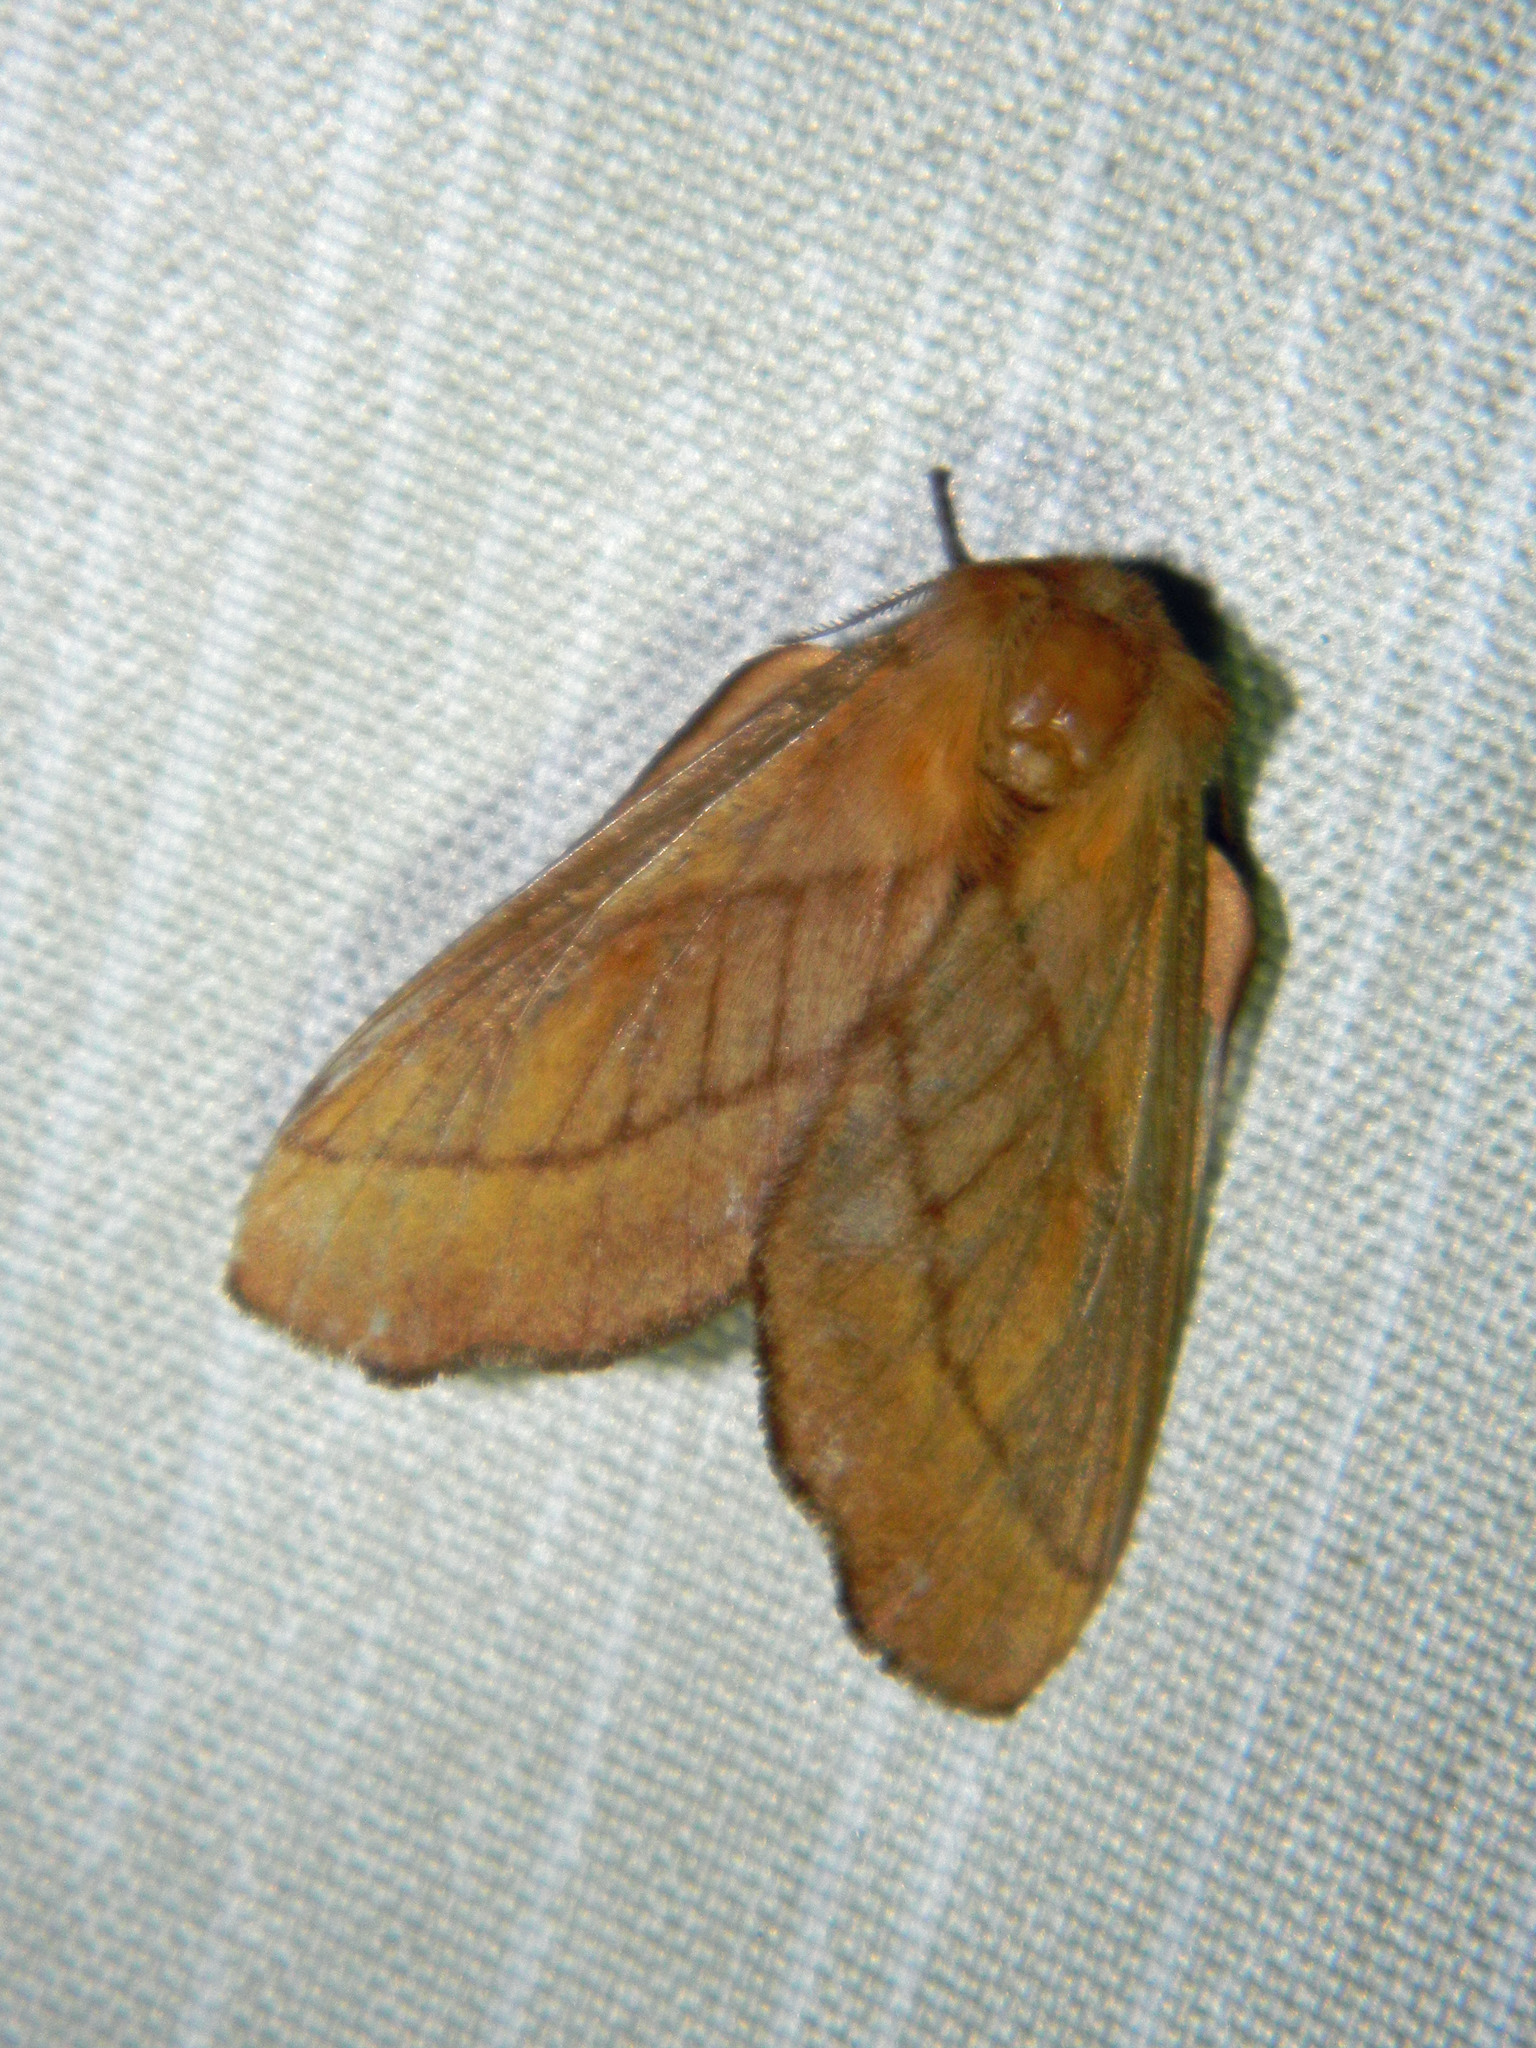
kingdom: Animalia
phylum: Arthropoda
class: Insecta
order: Lepidoptera
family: Lasiocampidae
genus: Malacosoma
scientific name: Malacosoma disstria
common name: Forest tent caterpillar
